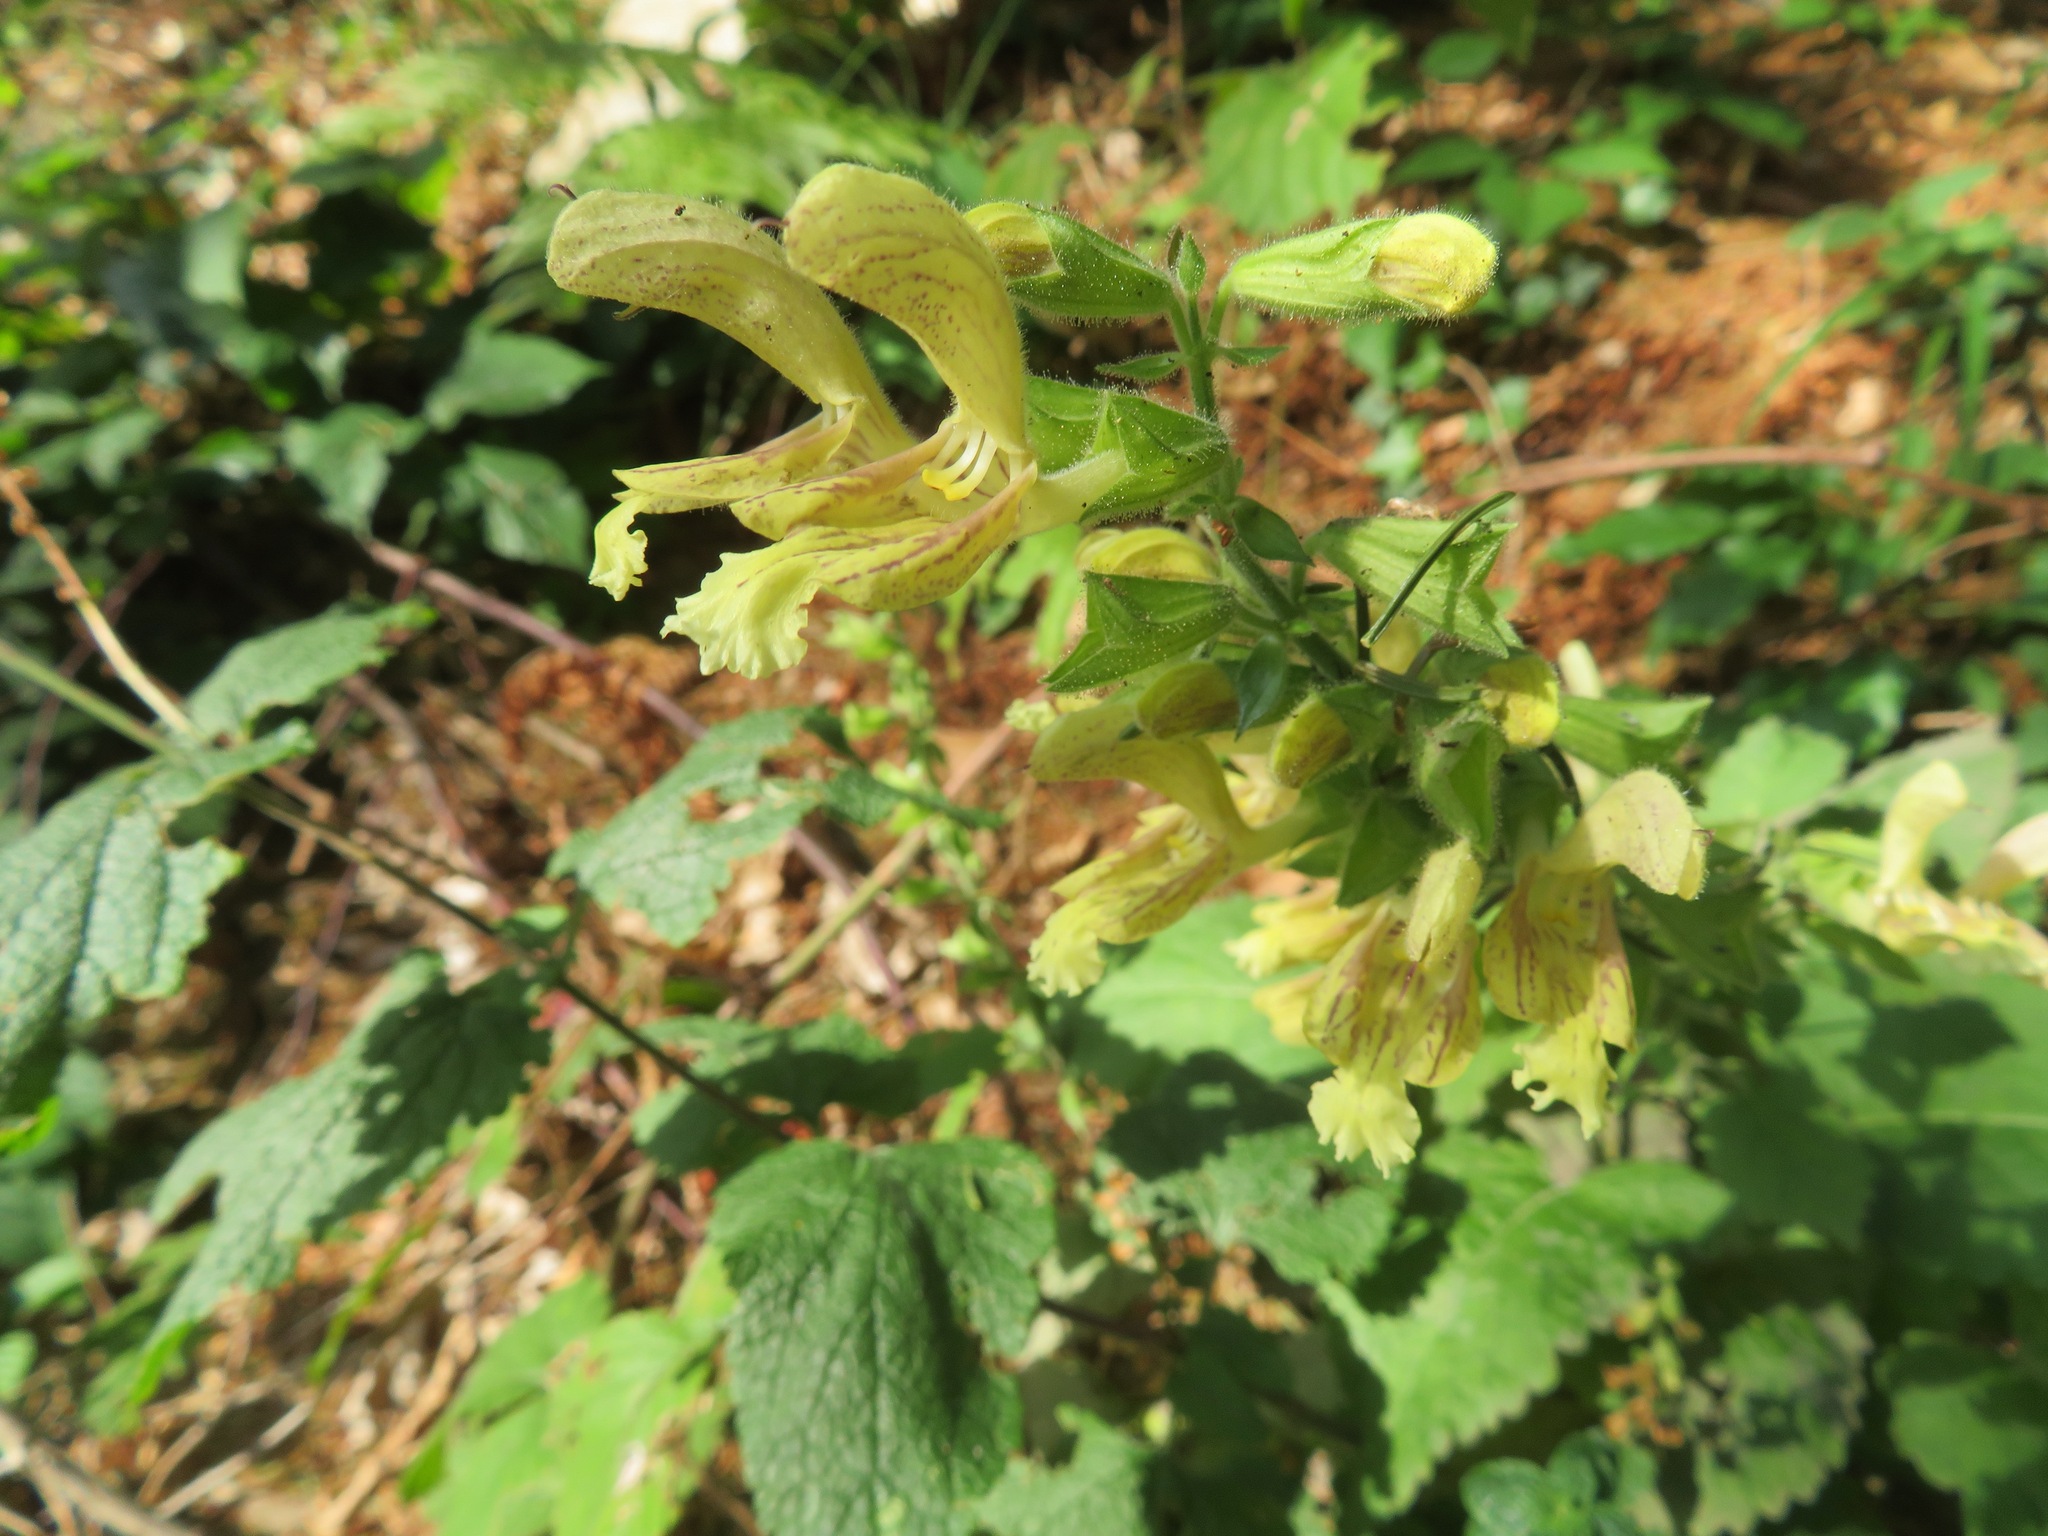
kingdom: Plantae
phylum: Tracheophyta
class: Magnoliopsida
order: Lamiales
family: Lamiaceae
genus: Salvia
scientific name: Salvia glutinosa
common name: Sticky clary
